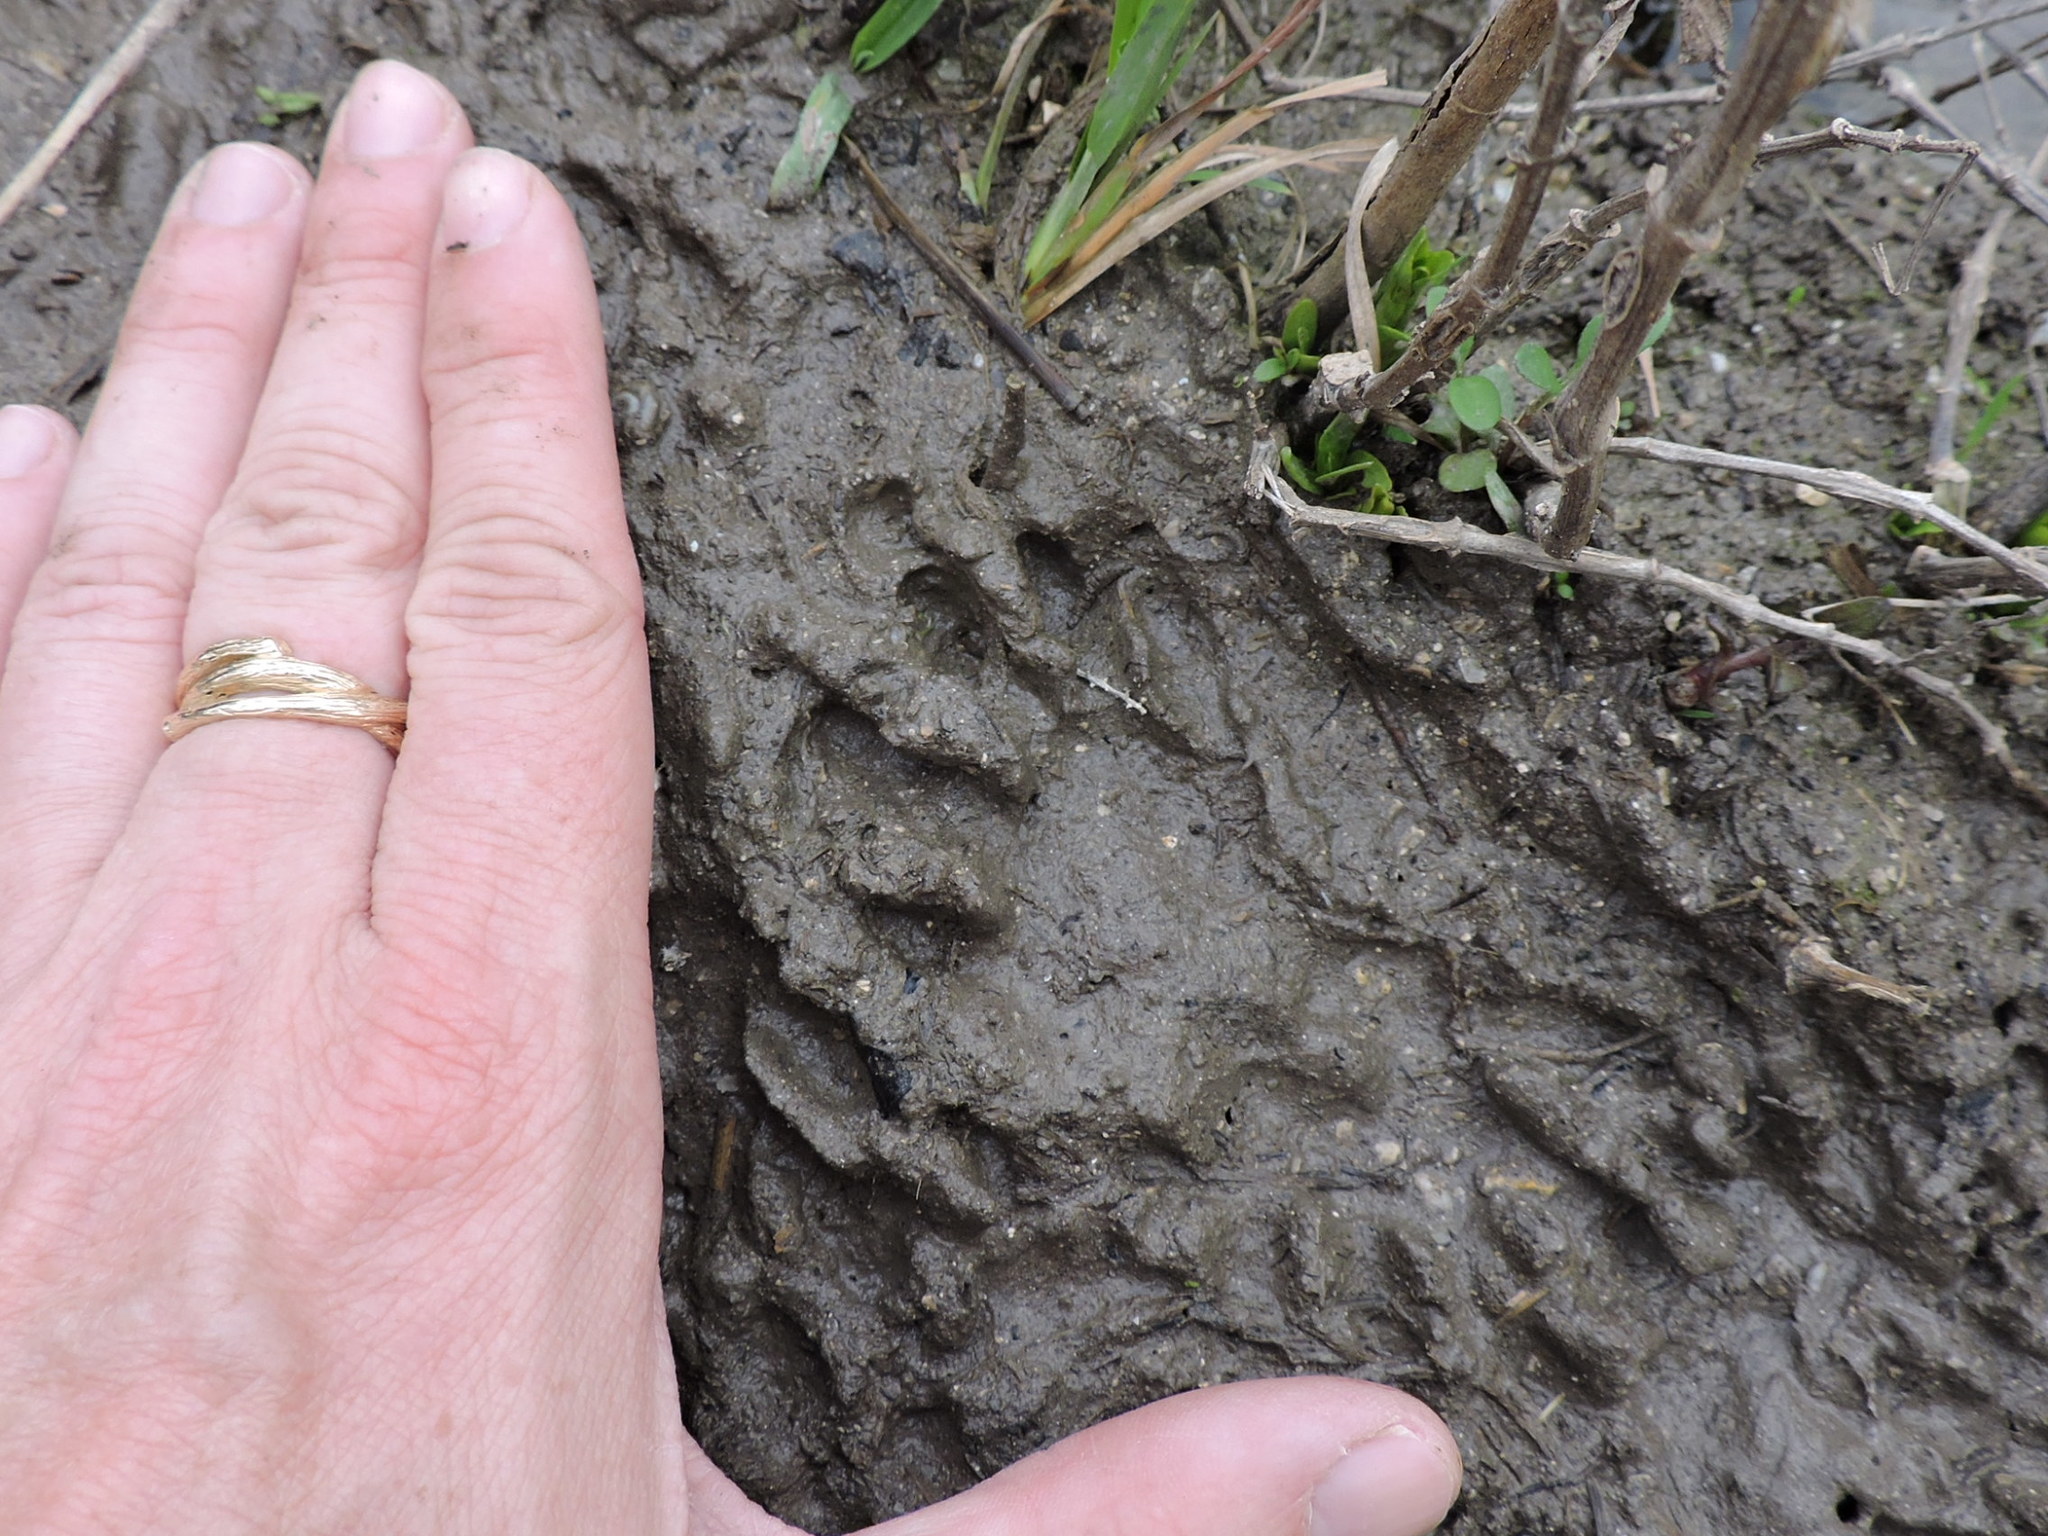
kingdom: Animalia
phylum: Chordata
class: Mammalia
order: Carnivora
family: Procyonidae
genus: Procyon
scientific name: Procyon lotor
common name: Raccoon
